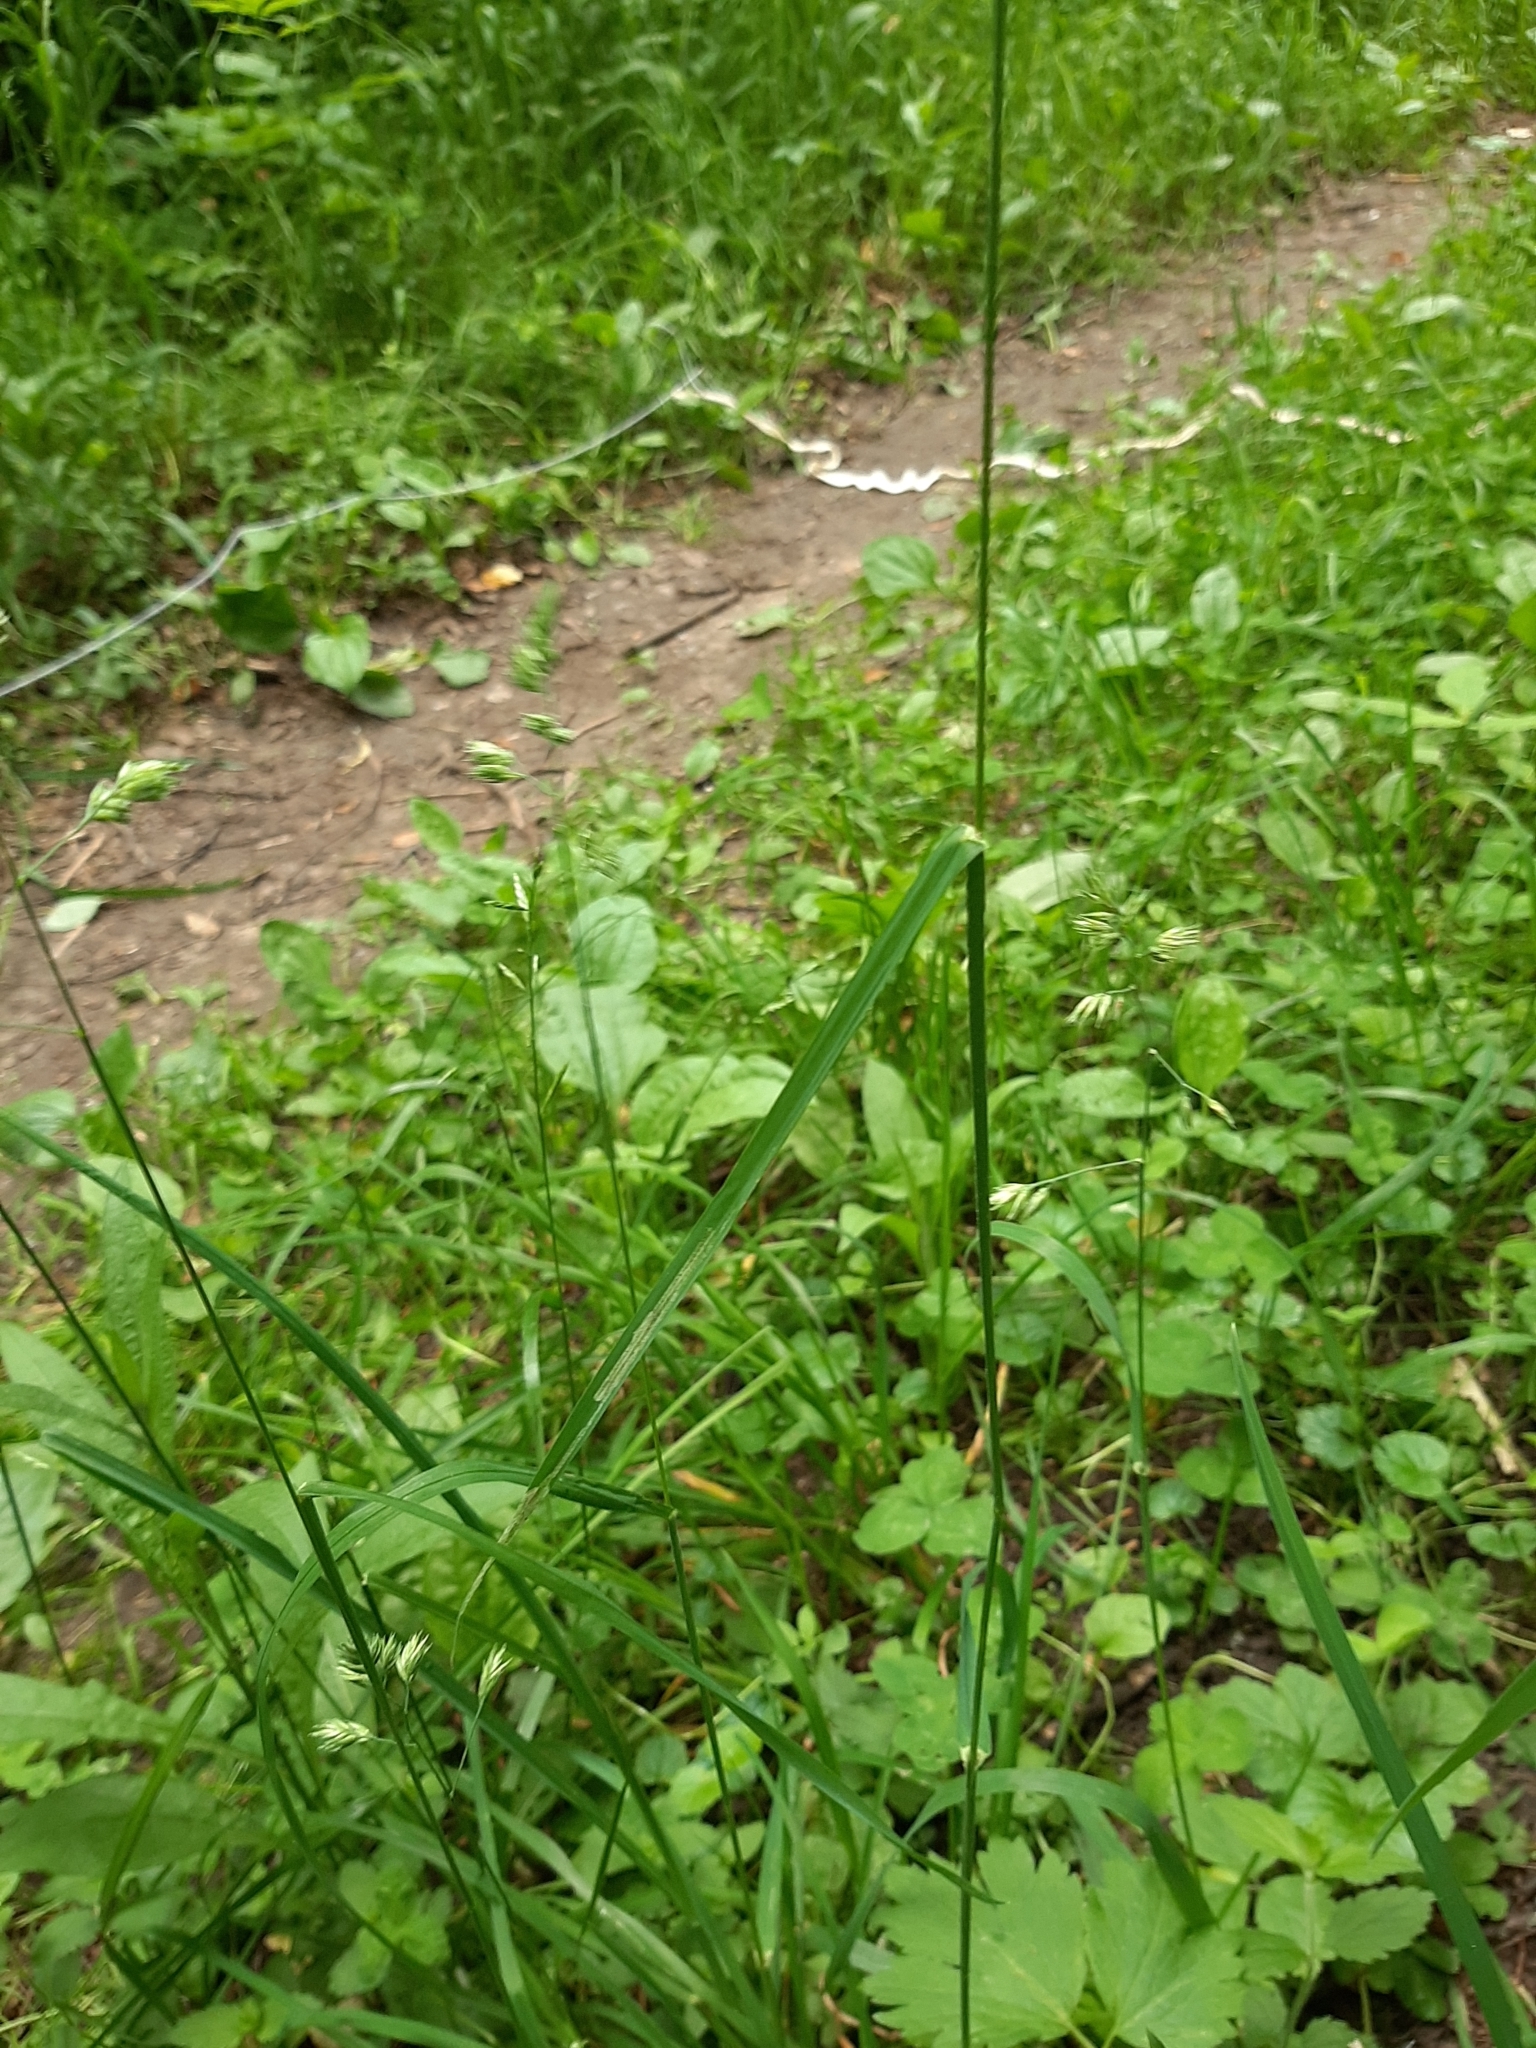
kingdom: Plantae
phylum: Tracheophyta
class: Liliopsida
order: Poales
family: Poaceae
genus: Dactylis
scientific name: Dactylis glomerata
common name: Orchardgrass
